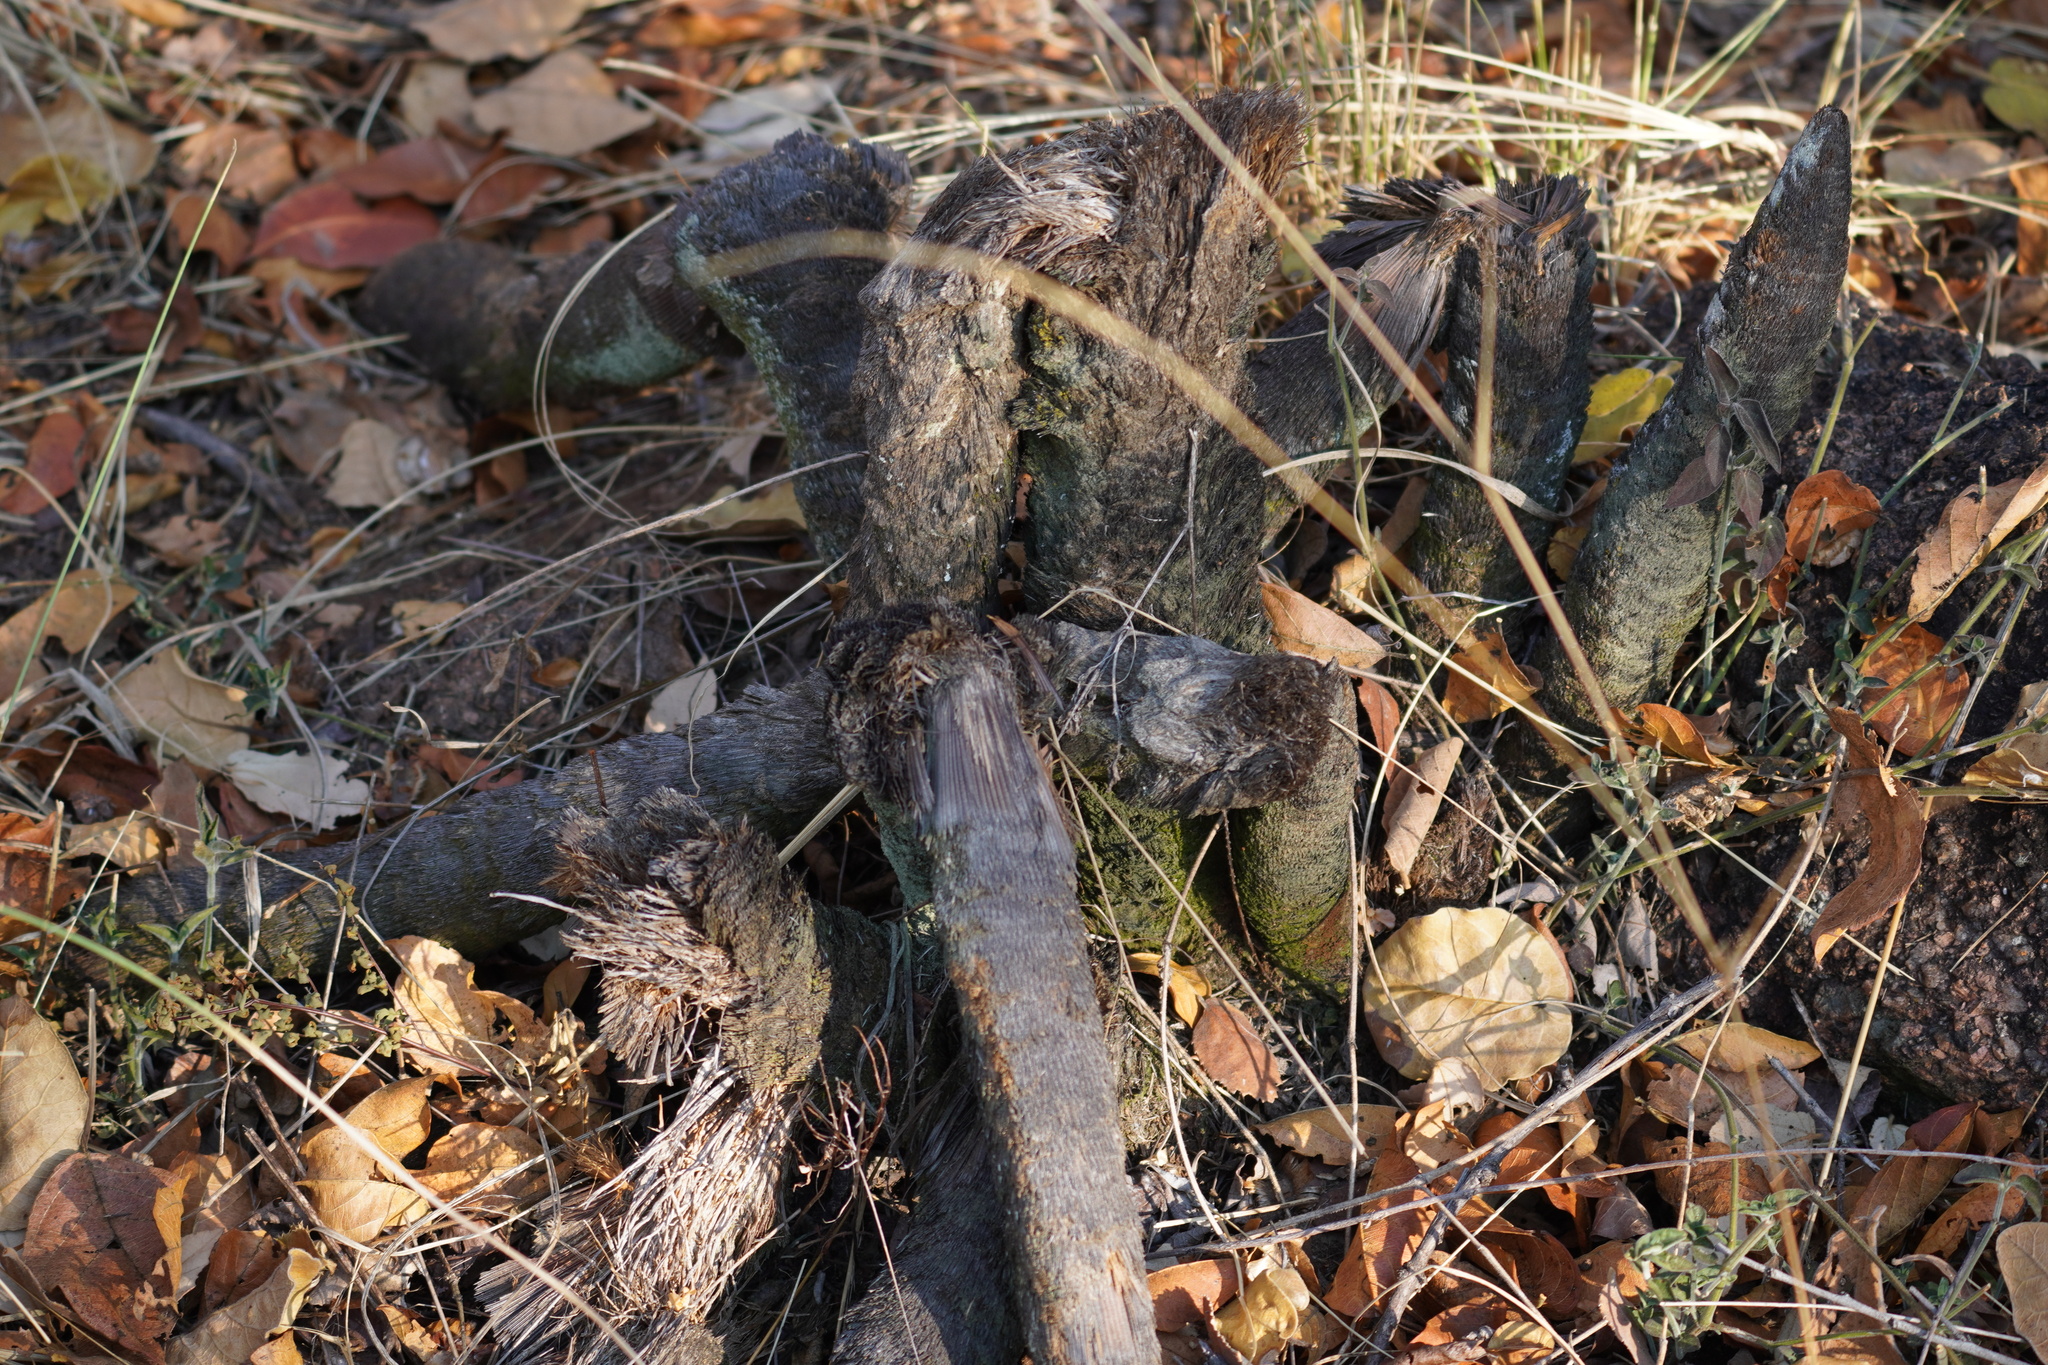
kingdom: Plantae
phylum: Tracheophyta
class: Liliopsida
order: Pandanales
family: Velloziaceae
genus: Xerophyta
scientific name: Xerophyta retinervis
